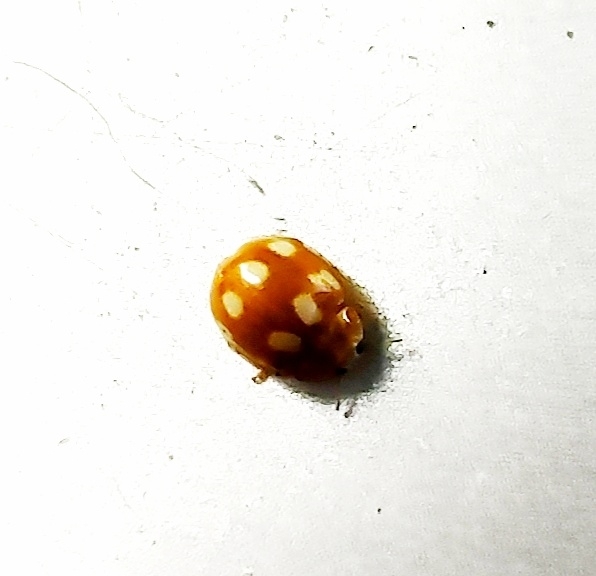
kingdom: Animalia
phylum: Arthropoda
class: Insecta
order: Coleoptera
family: Coccinellidae
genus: Calvia
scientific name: Calvia decemguttata
